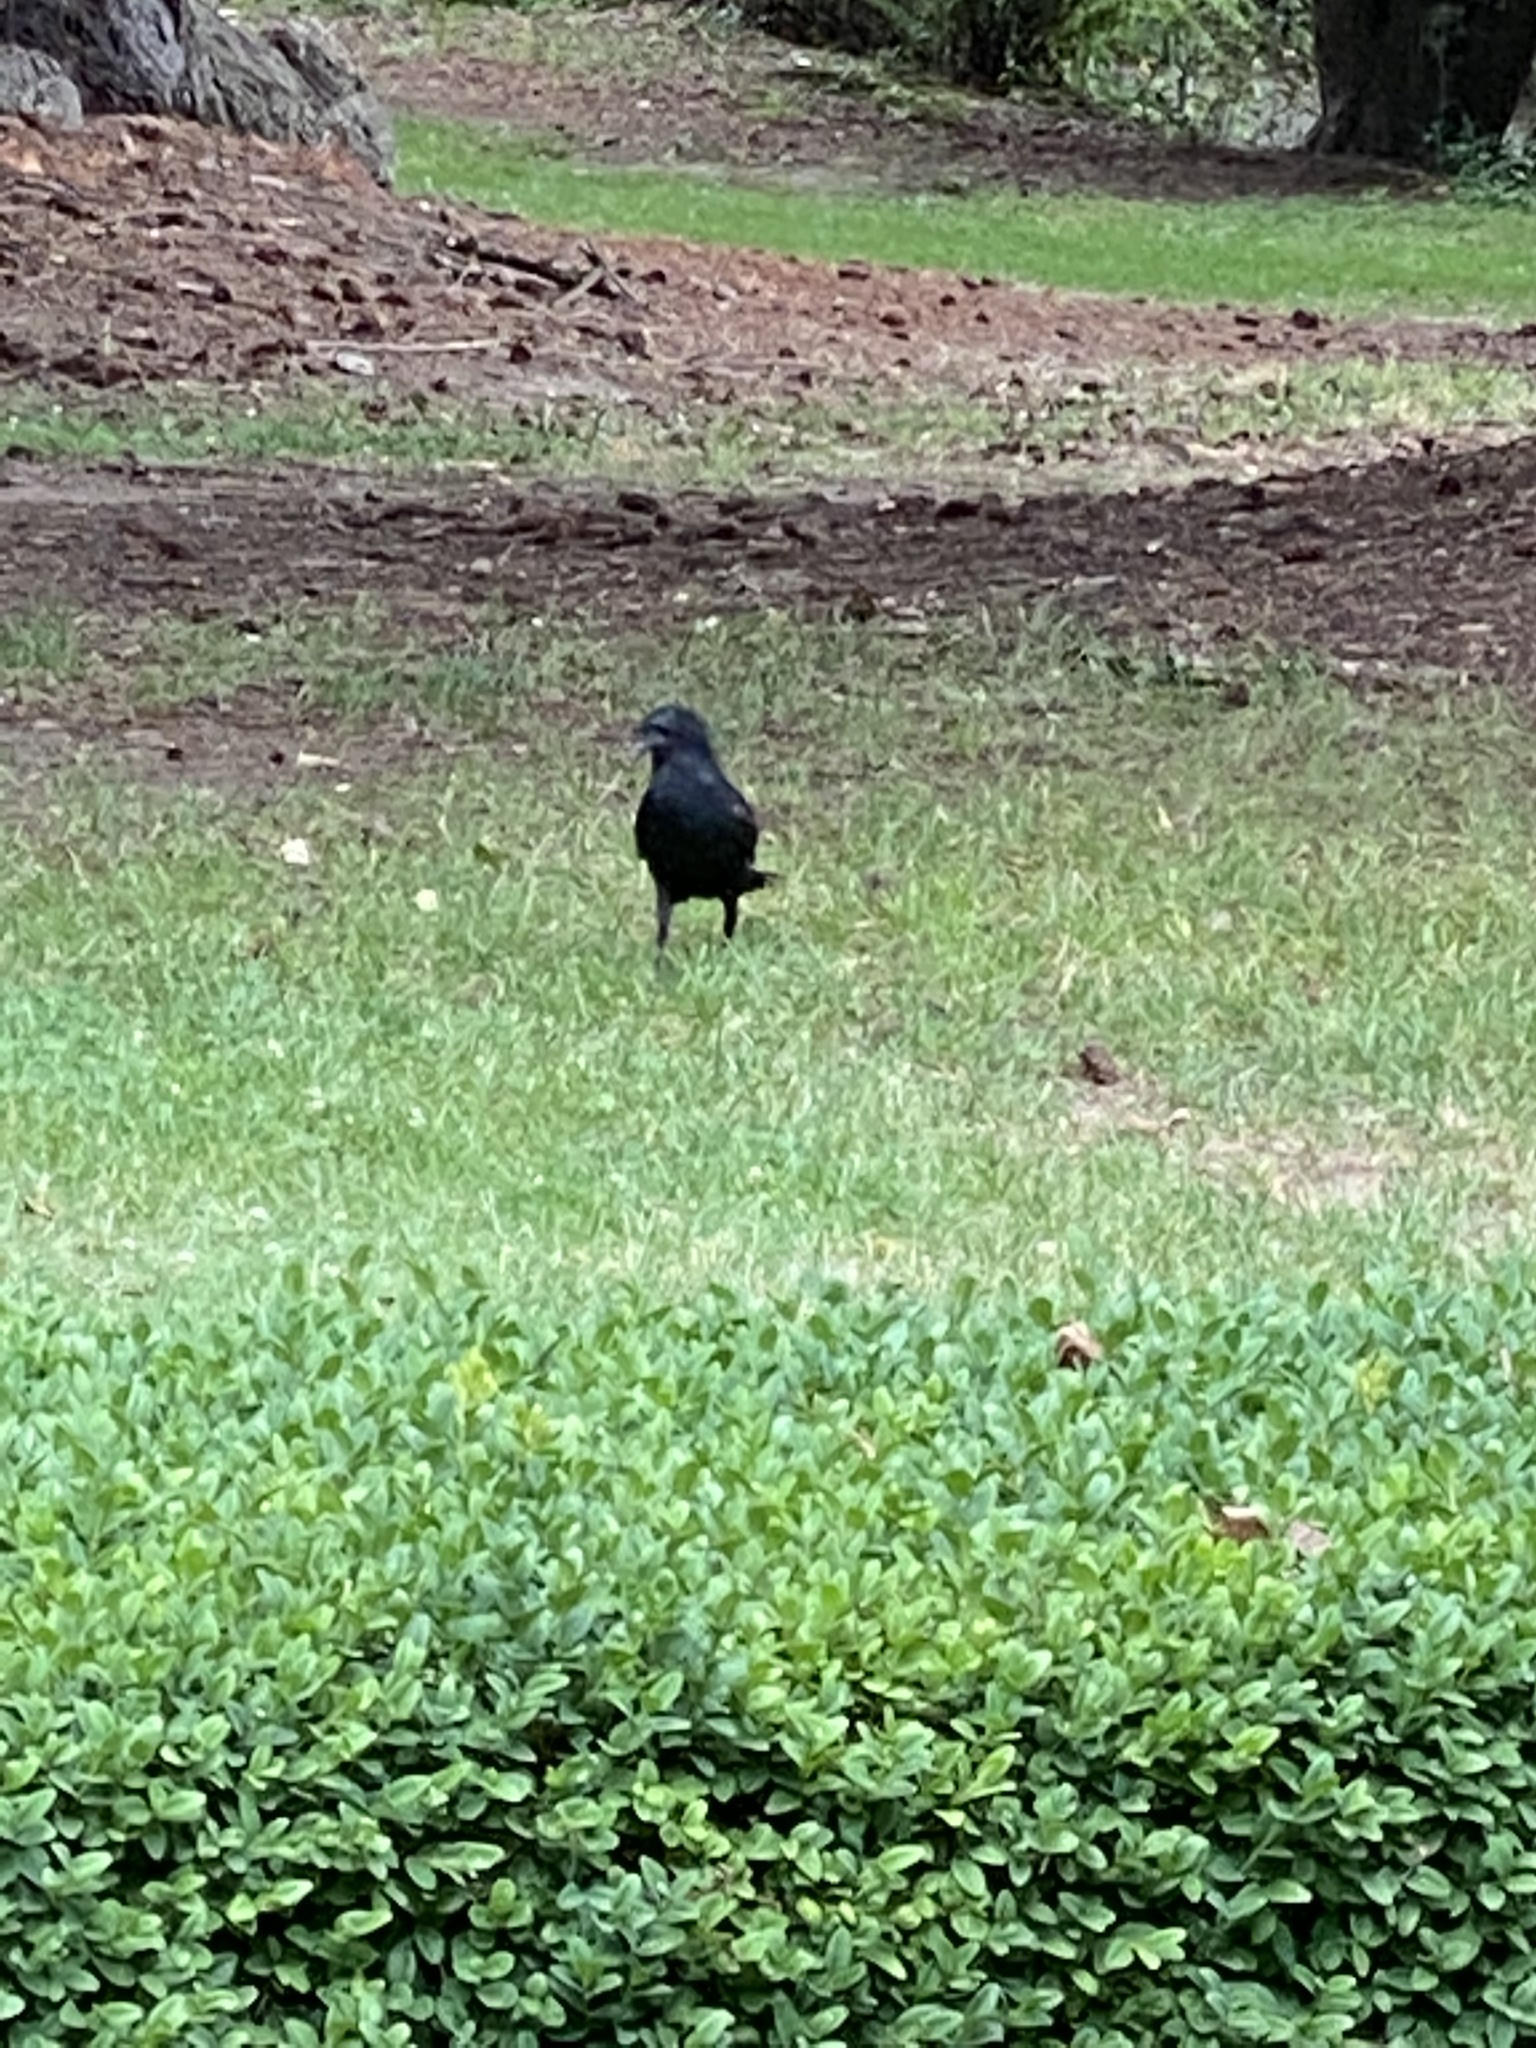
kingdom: Animalia
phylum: Chordata
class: Aves
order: Passeriformes
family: Corvidae
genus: Corvus
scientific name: Corvus brachyrhynchos
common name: American crow
